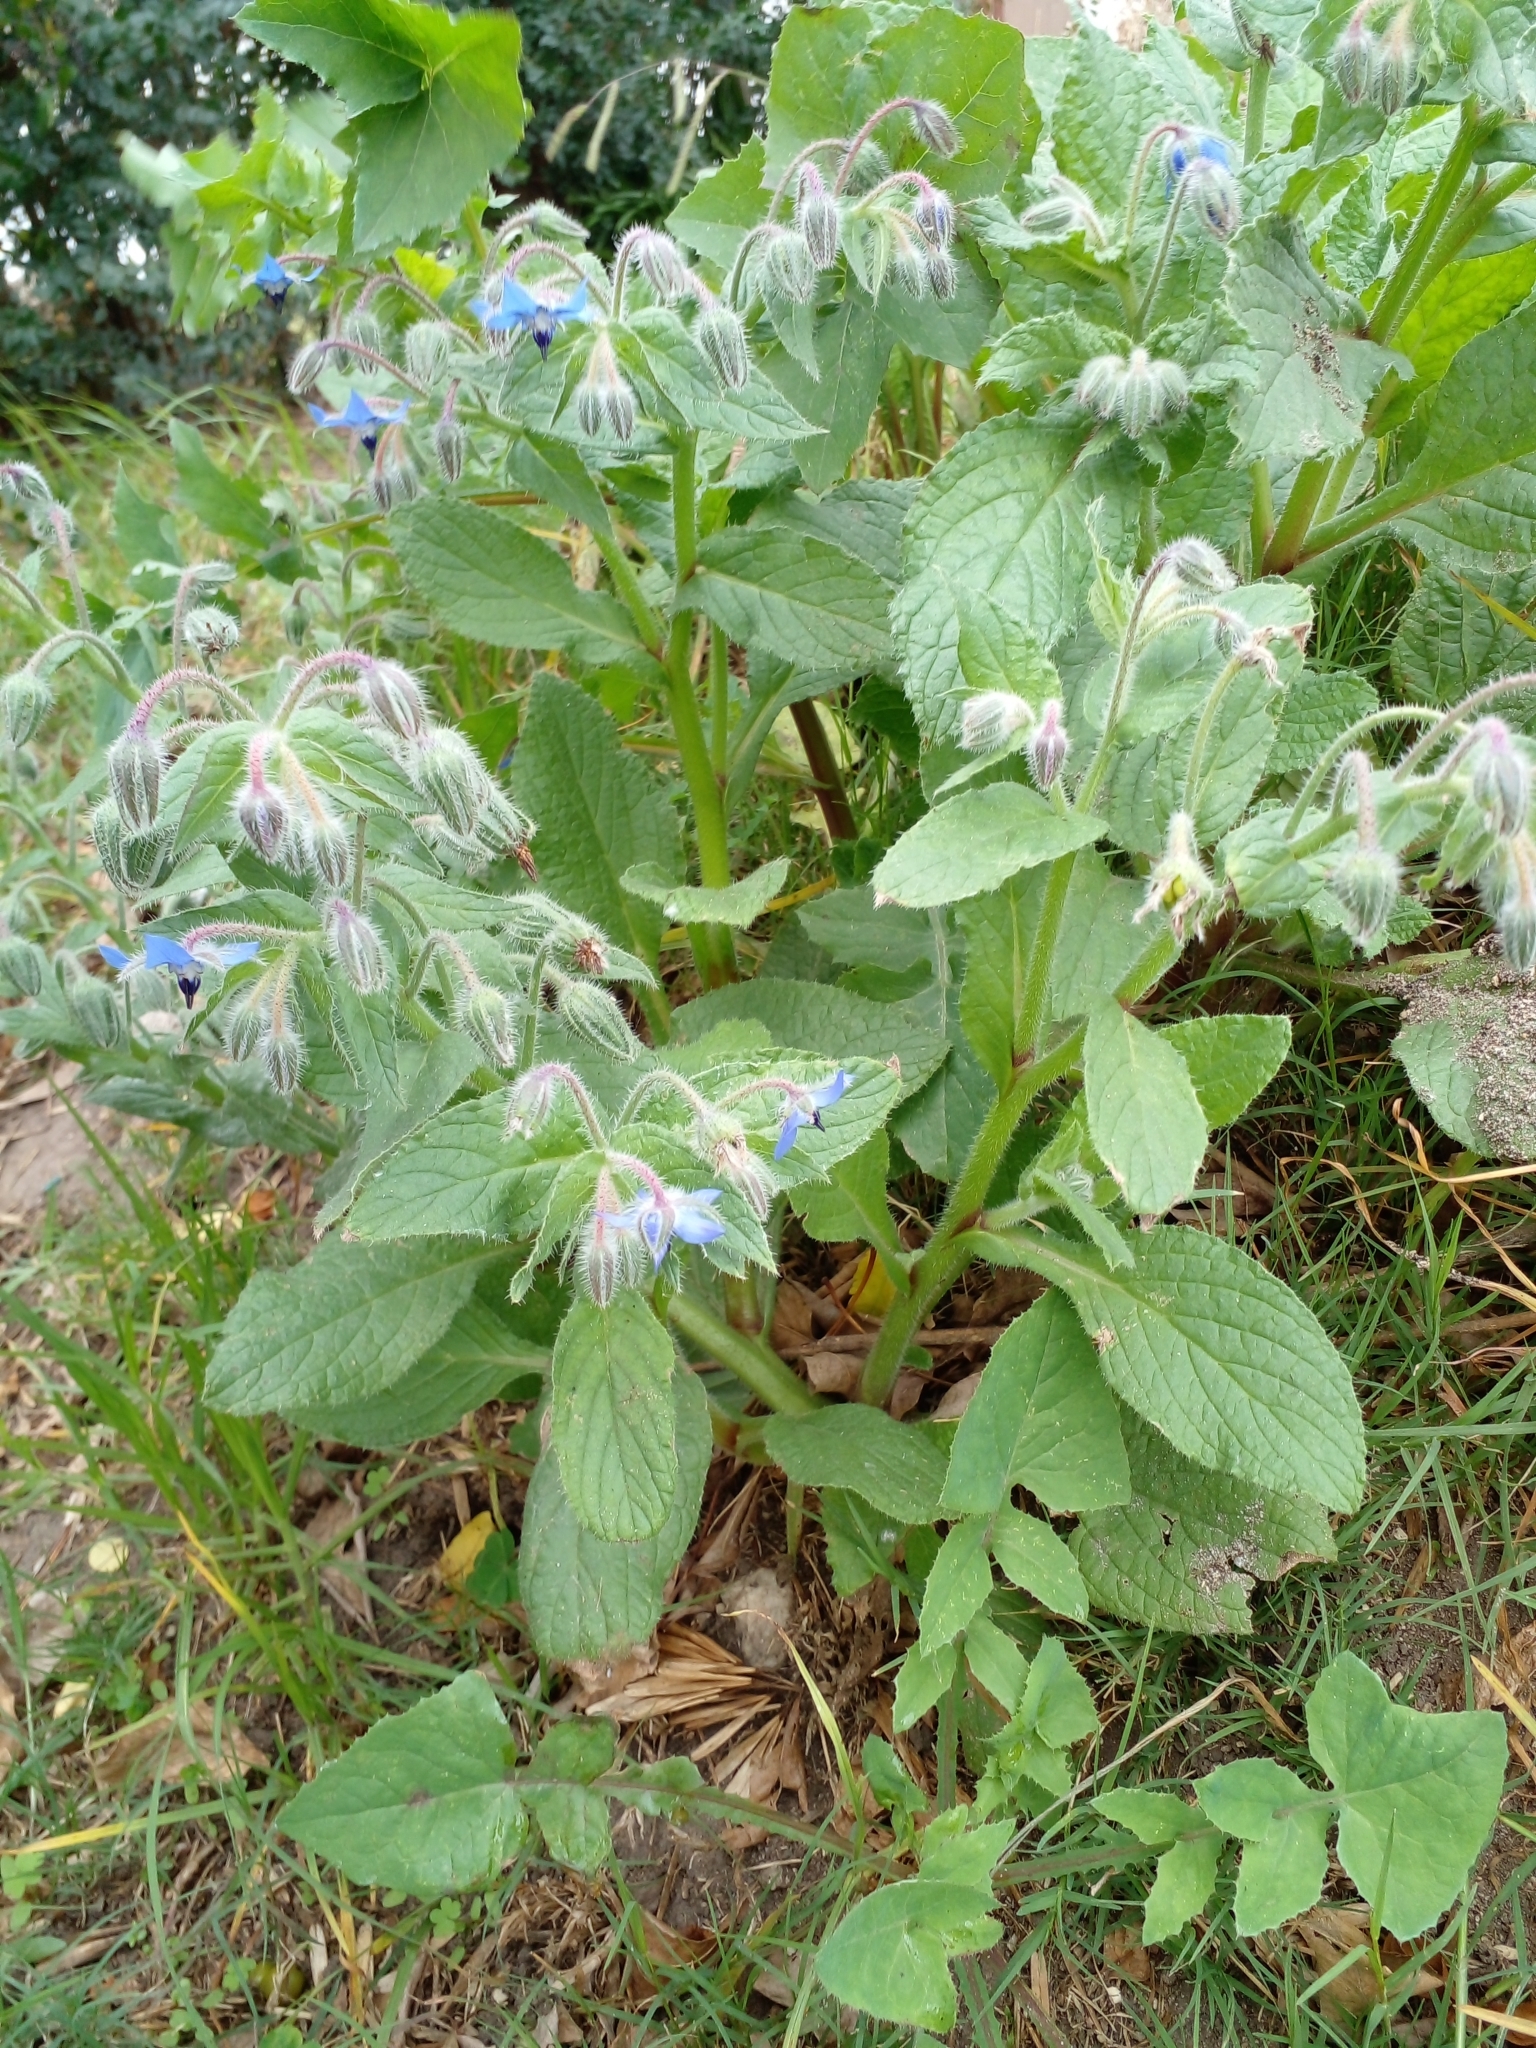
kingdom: Plantae
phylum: Tracheophyta
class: Magnoliopsida
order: Boraginales
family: Boraginaceae
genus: Borago
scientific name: Borago officinalis
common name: Borage
